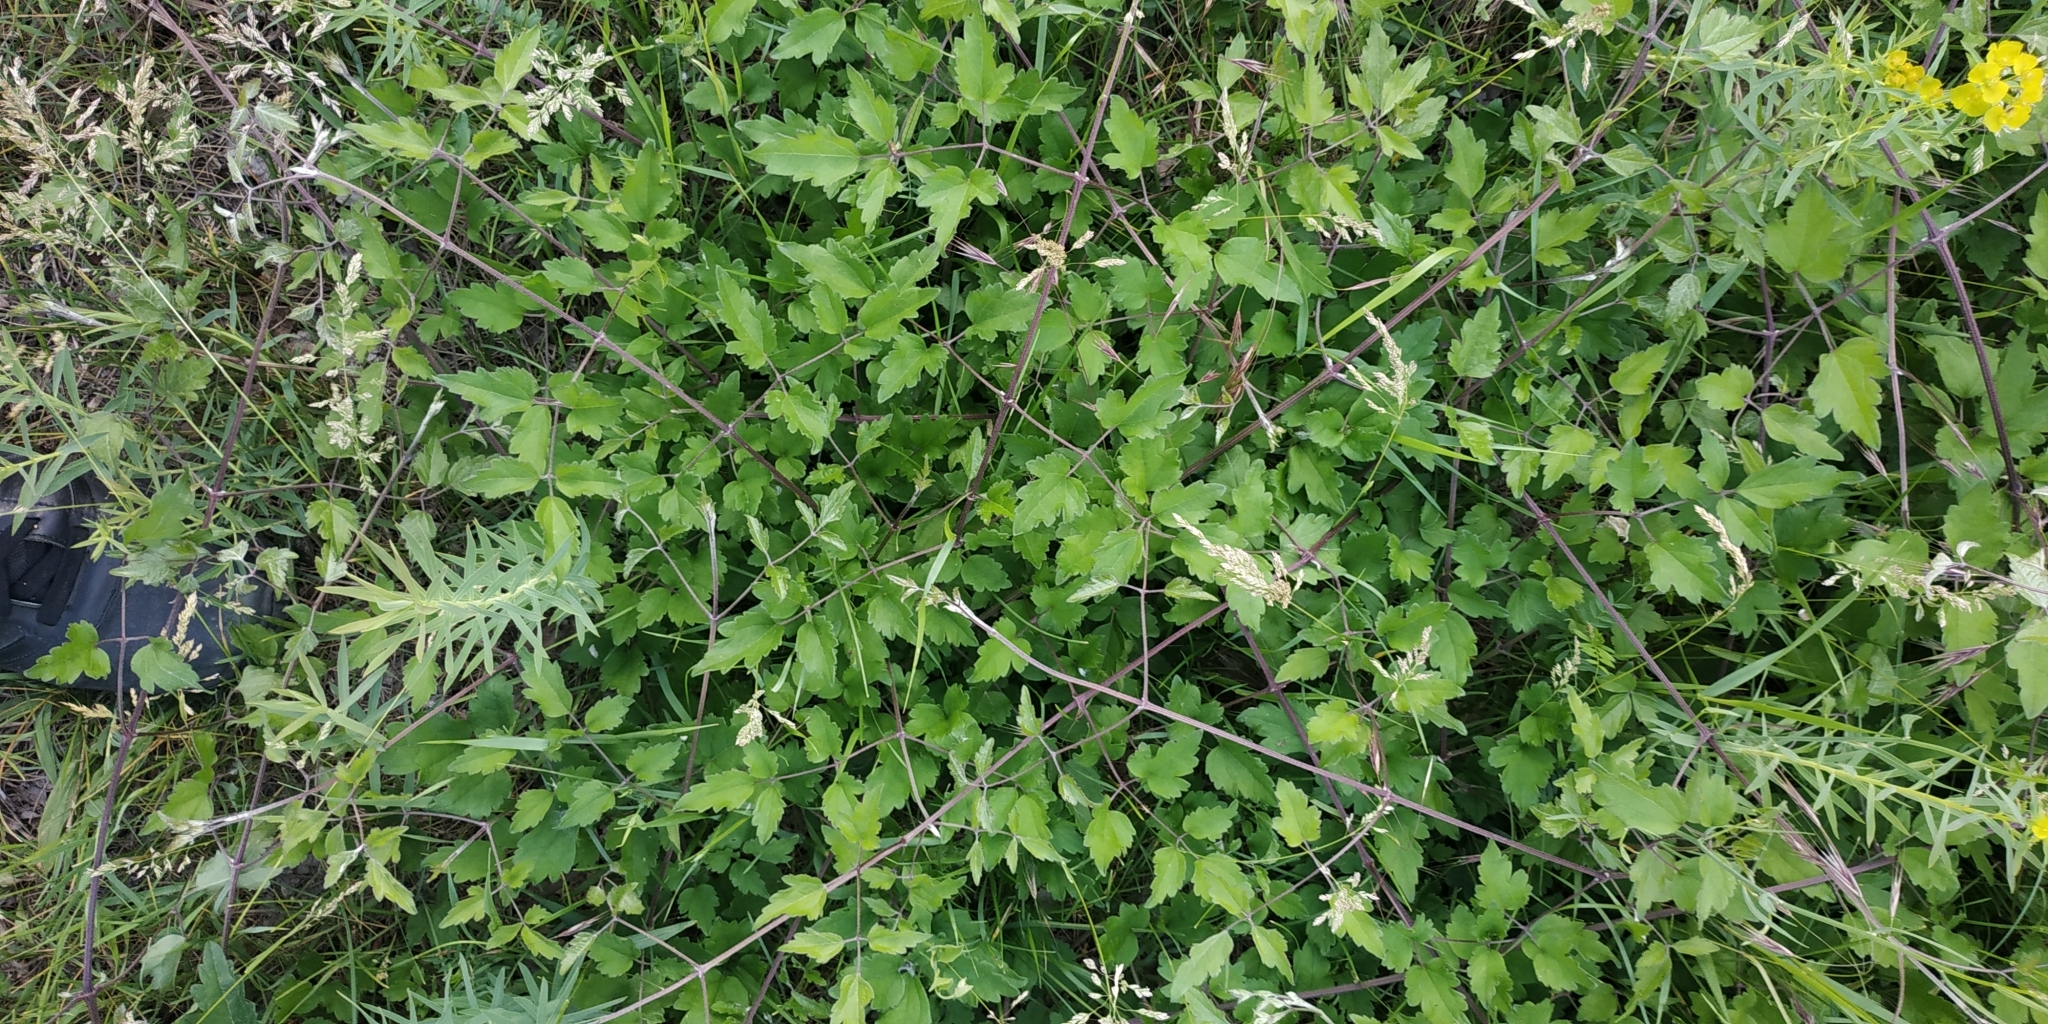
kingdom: Plantae
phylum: Tracheophyta
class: Magnoliopsida
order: Ranunculales
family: Ranunculaceae
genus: Clematis
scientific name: Clematis vitalba
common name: Evergreen clematis
